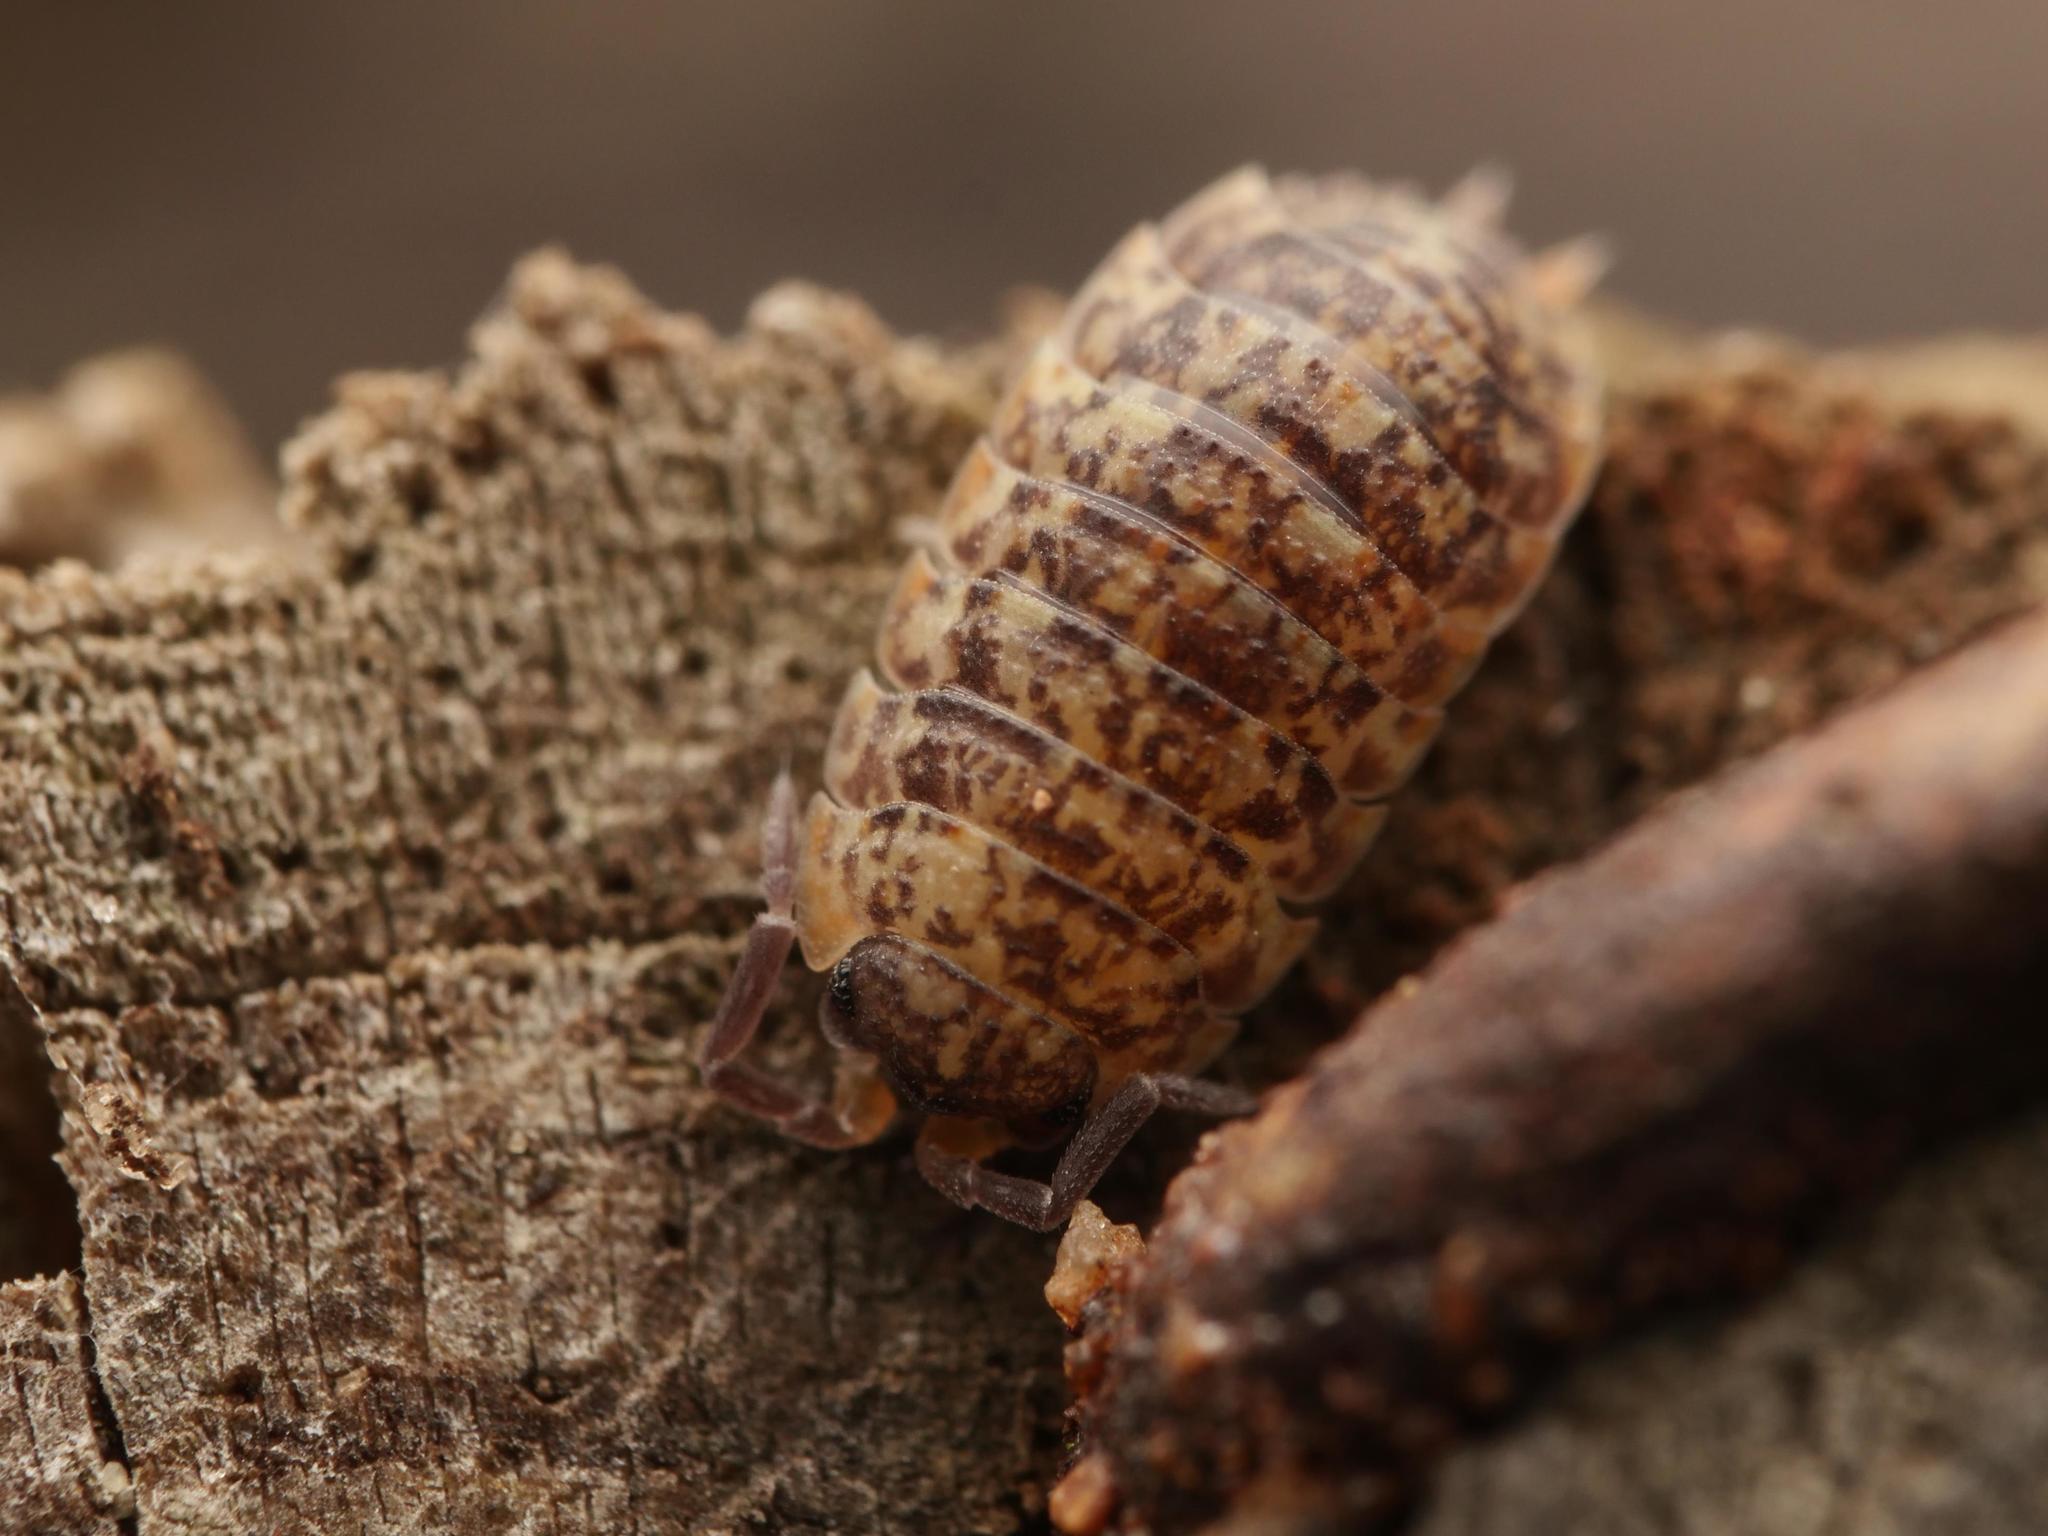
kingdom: Animalia
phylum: Arthropoda
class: Malacostraca
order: Isopoda
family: Porcellionidae
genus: Porcellio
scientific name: Porcellio scaber
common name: Common rough woodlouse
